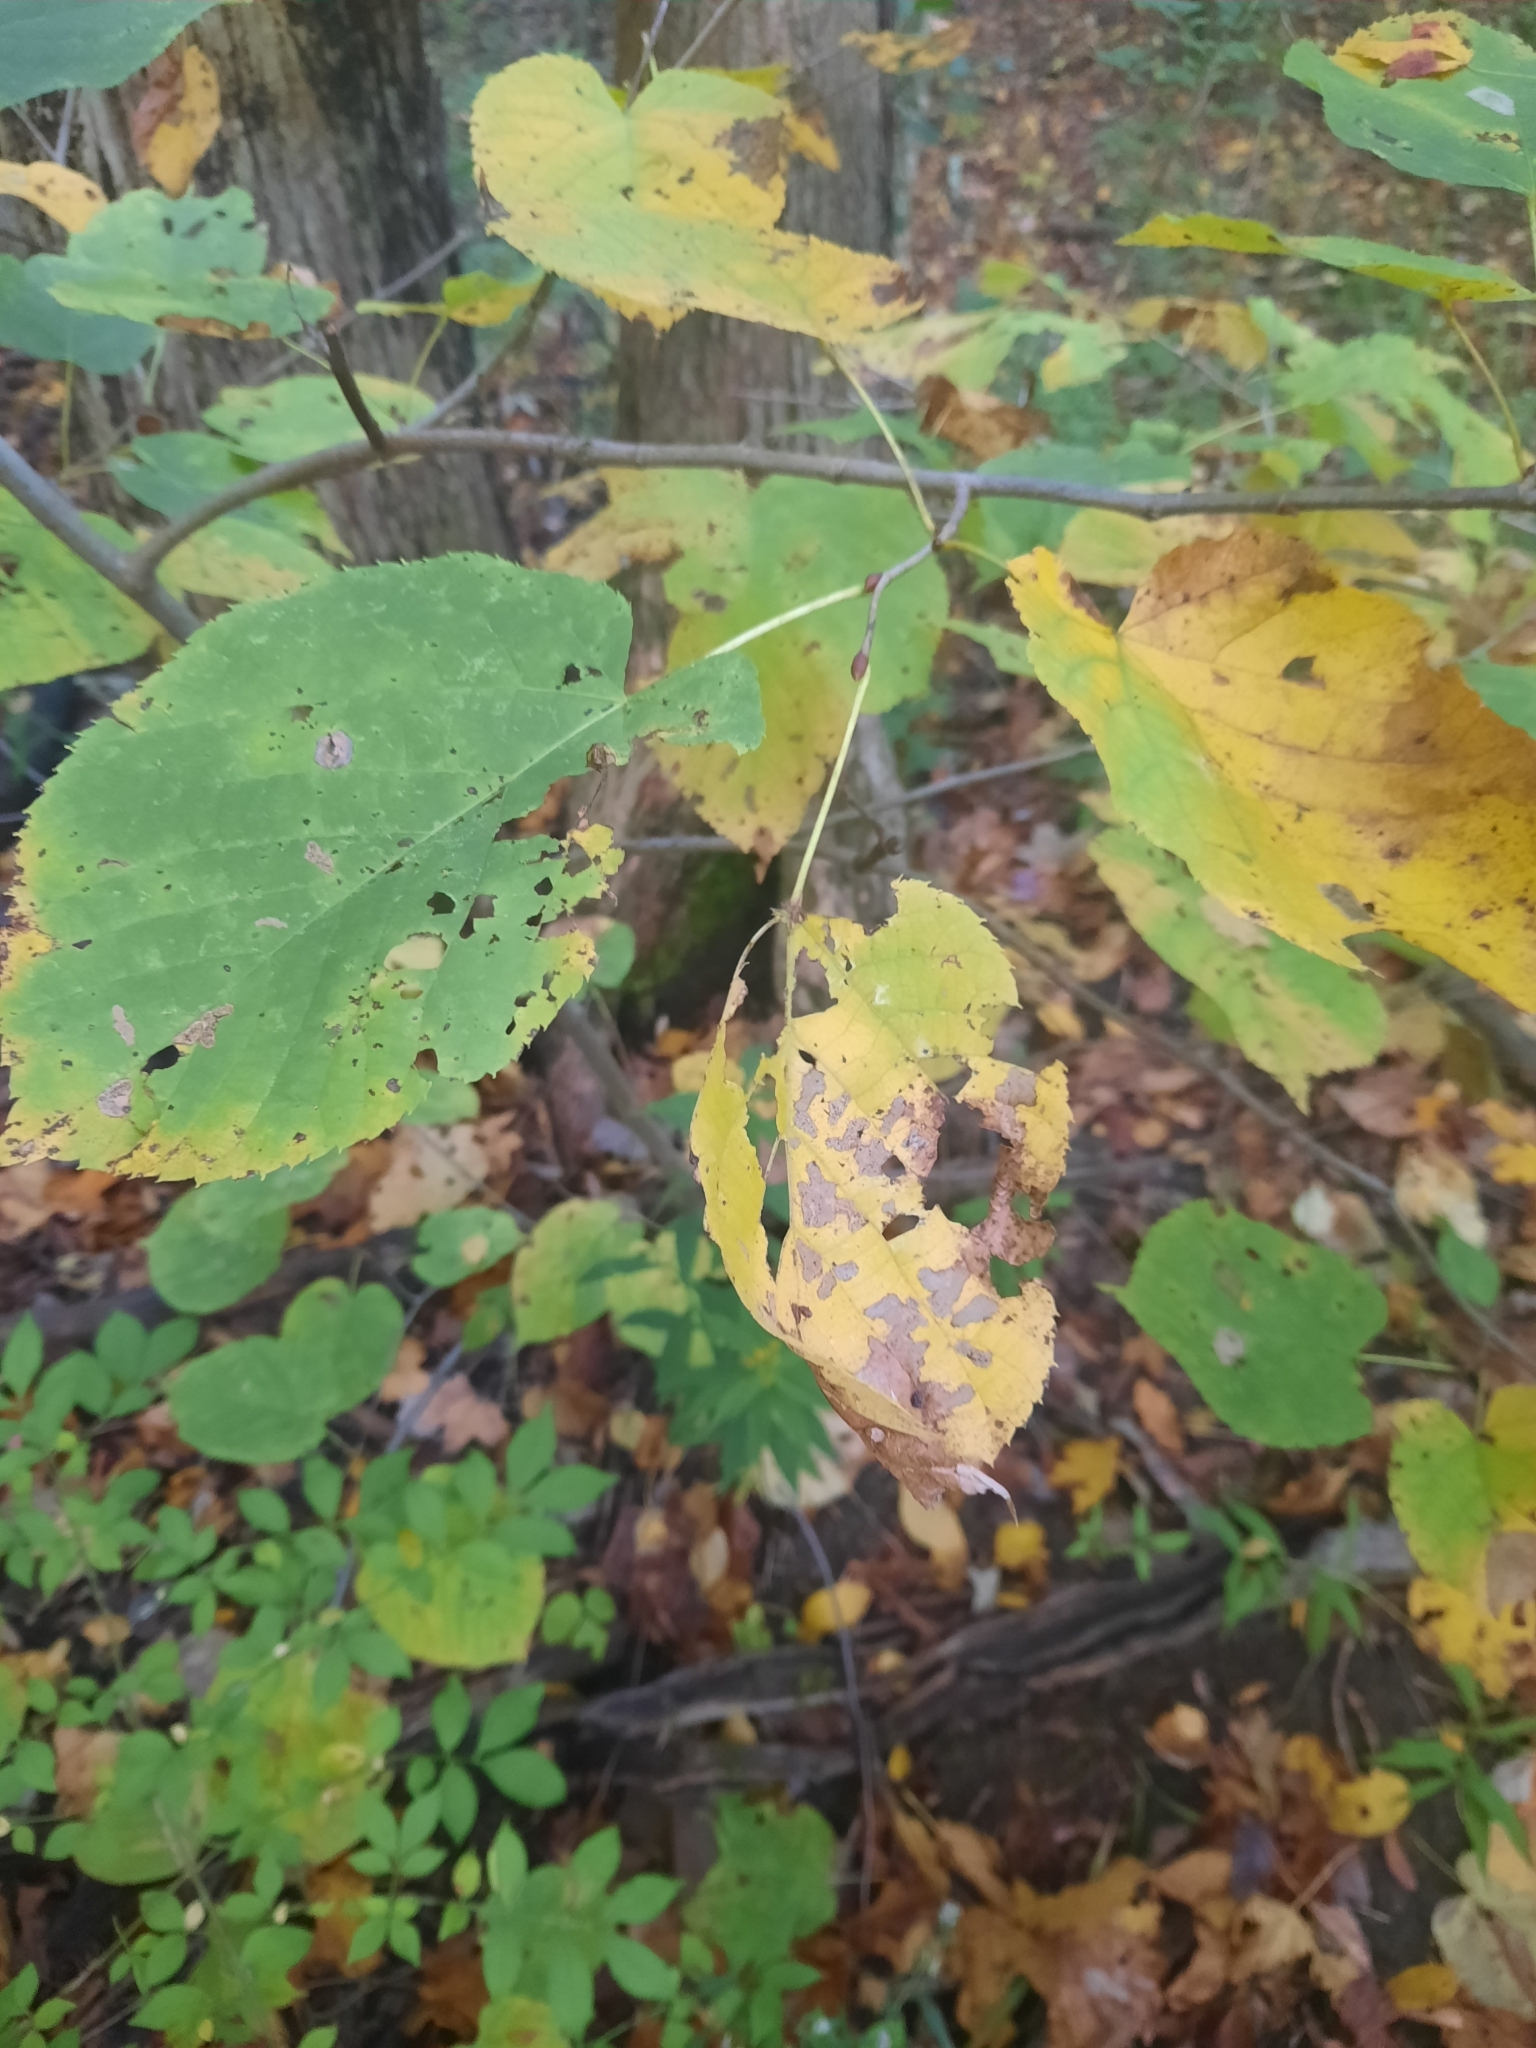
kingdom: Plantae
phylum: Tracheophyta
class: Magnoliopsida
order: Malvales
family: Malvaceae
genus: Tilia
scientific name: Tilia americana
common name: Basswood
